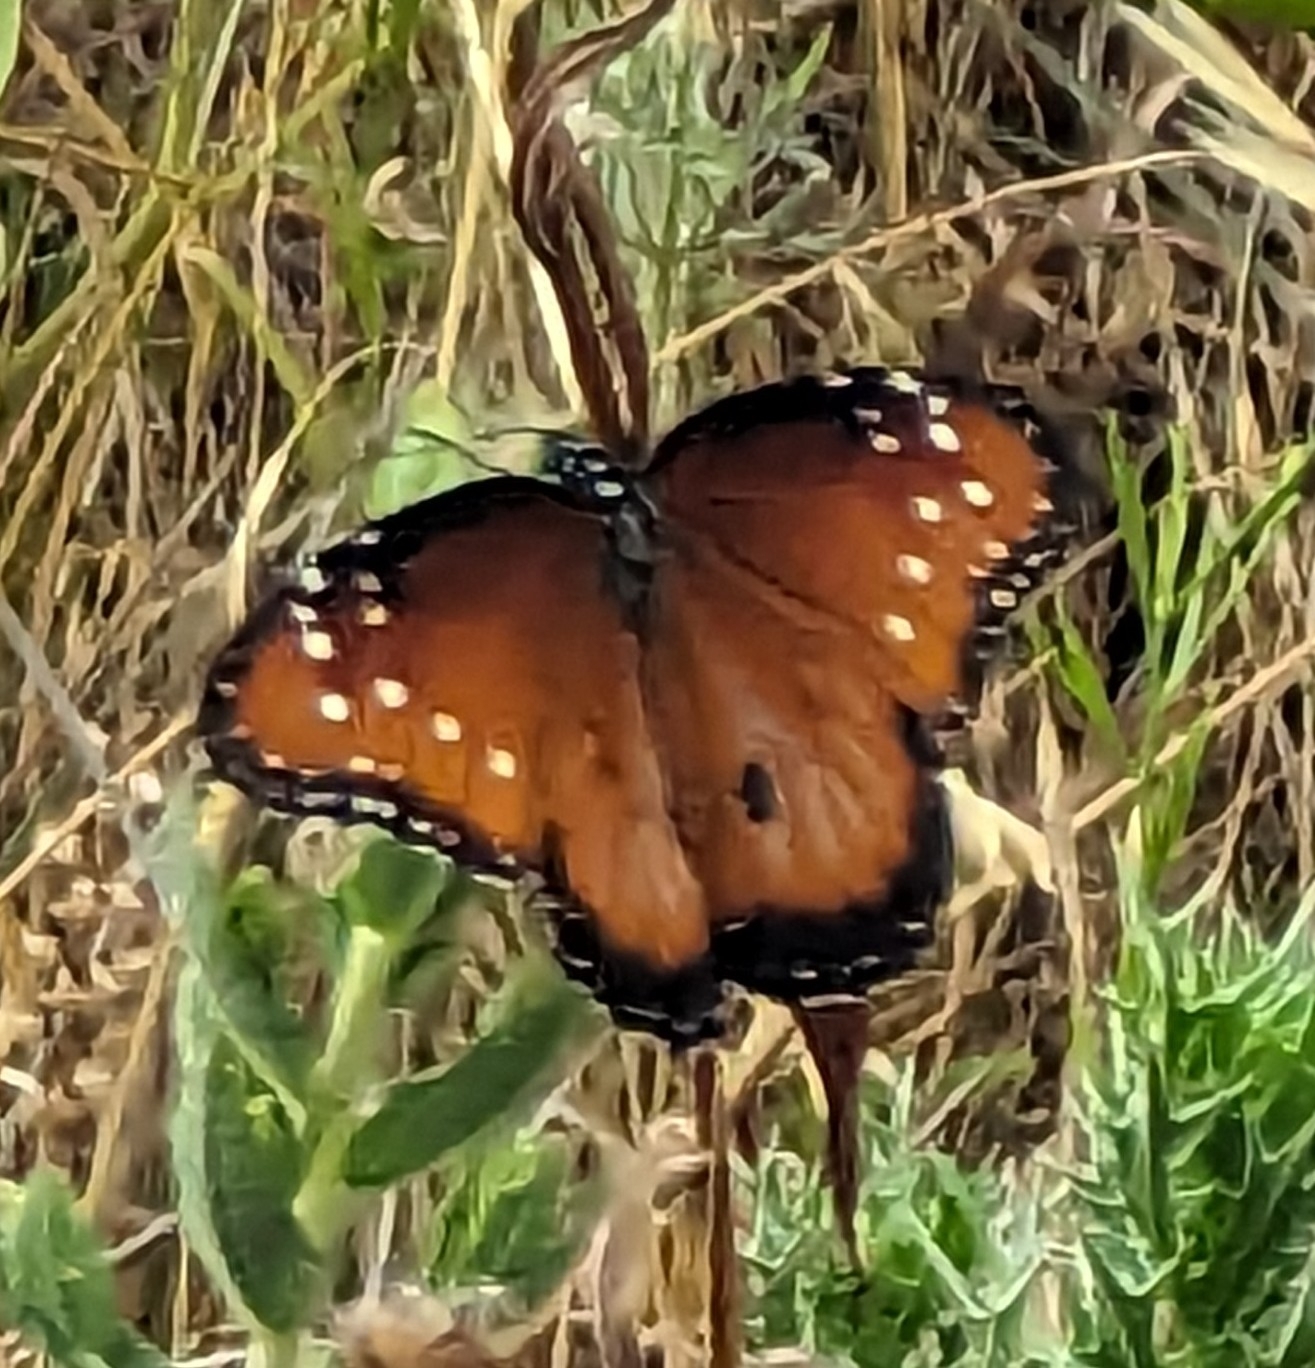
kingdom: Animalia
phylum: Arthropoda
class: Insecta
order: Lepidoptera
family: Nymphalidae
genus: Danaus
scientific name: Danaus gilippus
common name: Queen
